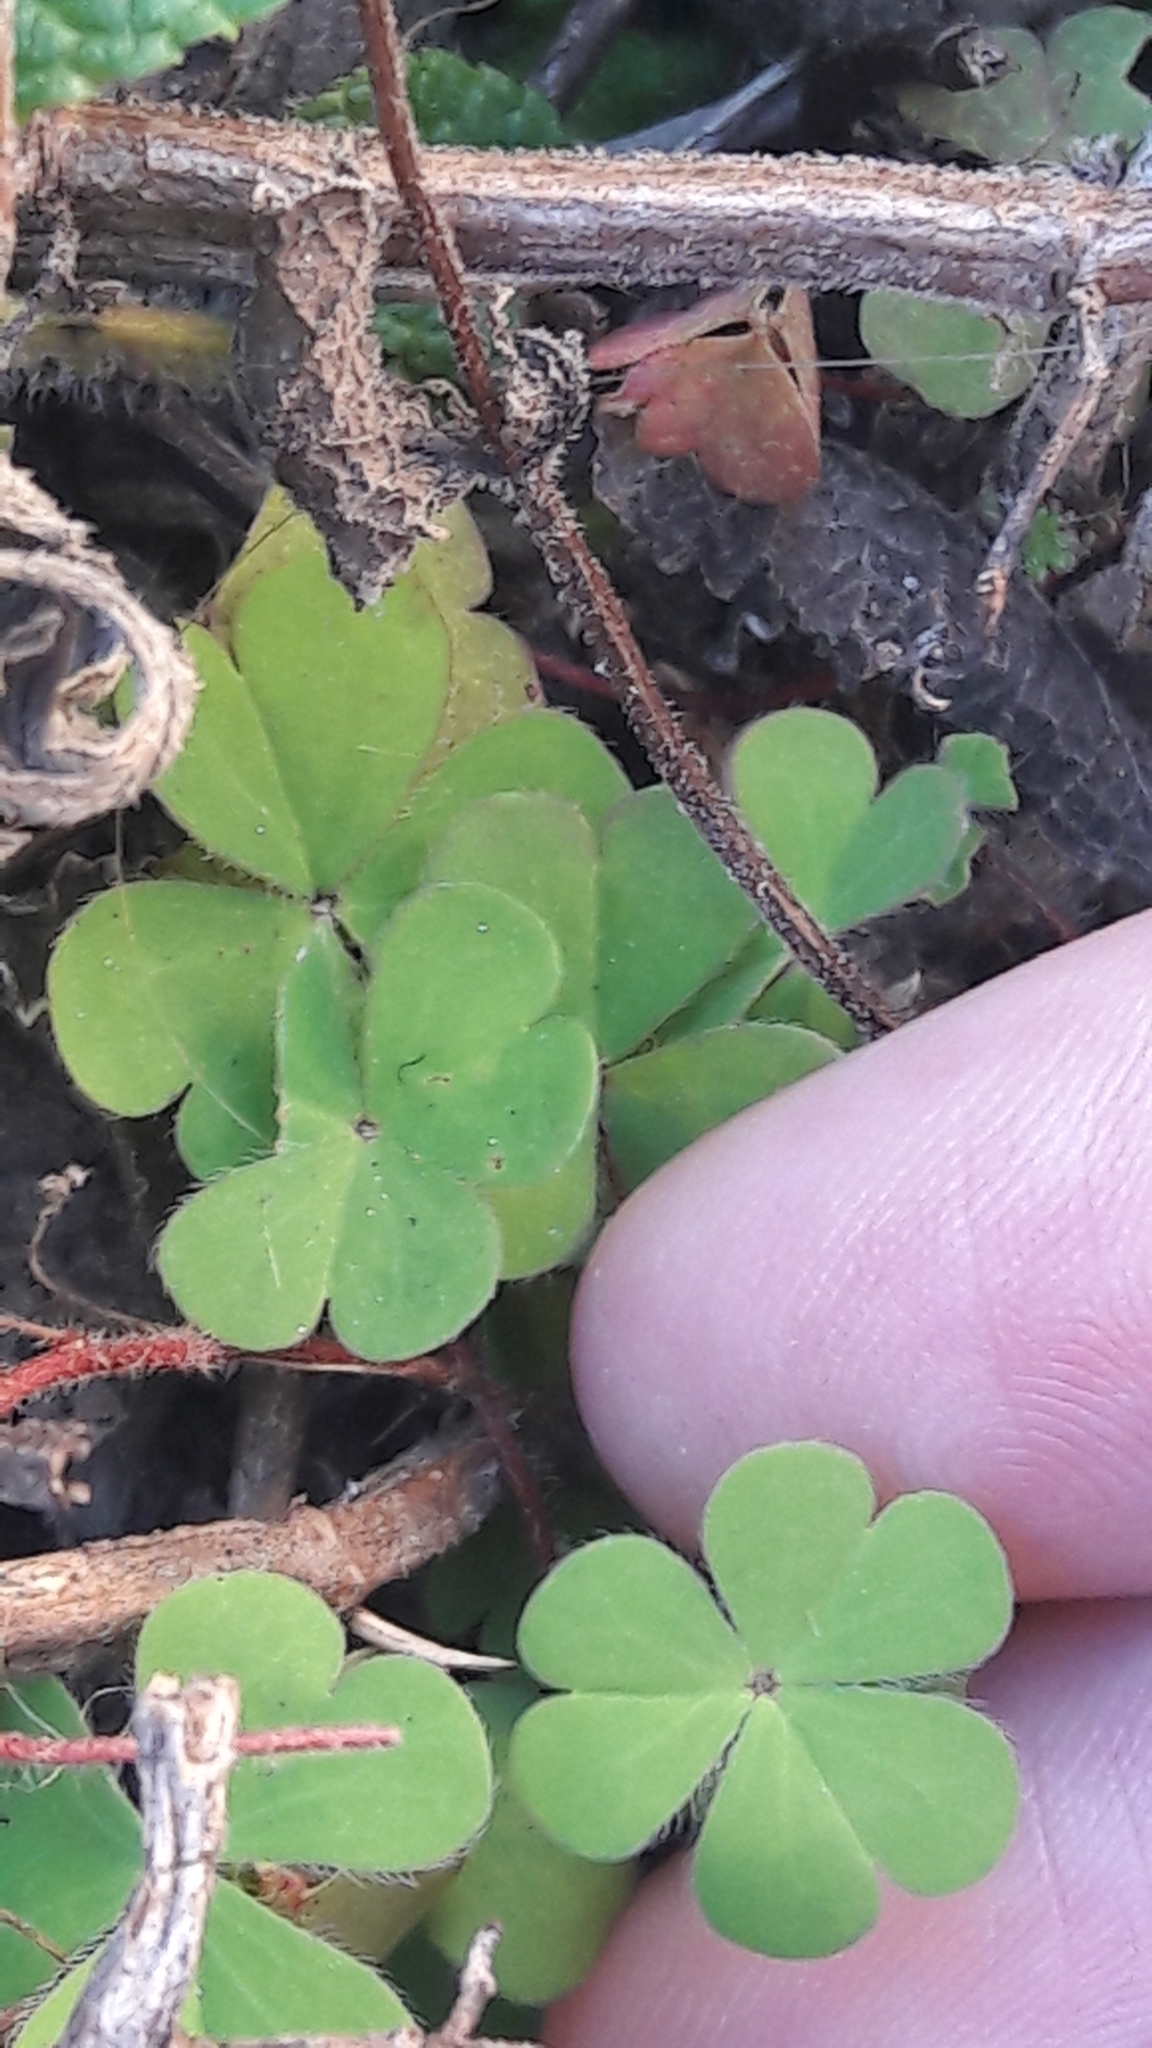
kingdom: Plantae
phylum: Tracheophyta
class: Magnoliopsida
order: Oxalidales
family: Oxalidaceae
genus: Oxalis
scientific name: Oxalis corniculata
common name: Procumbent yellow-sorrel
